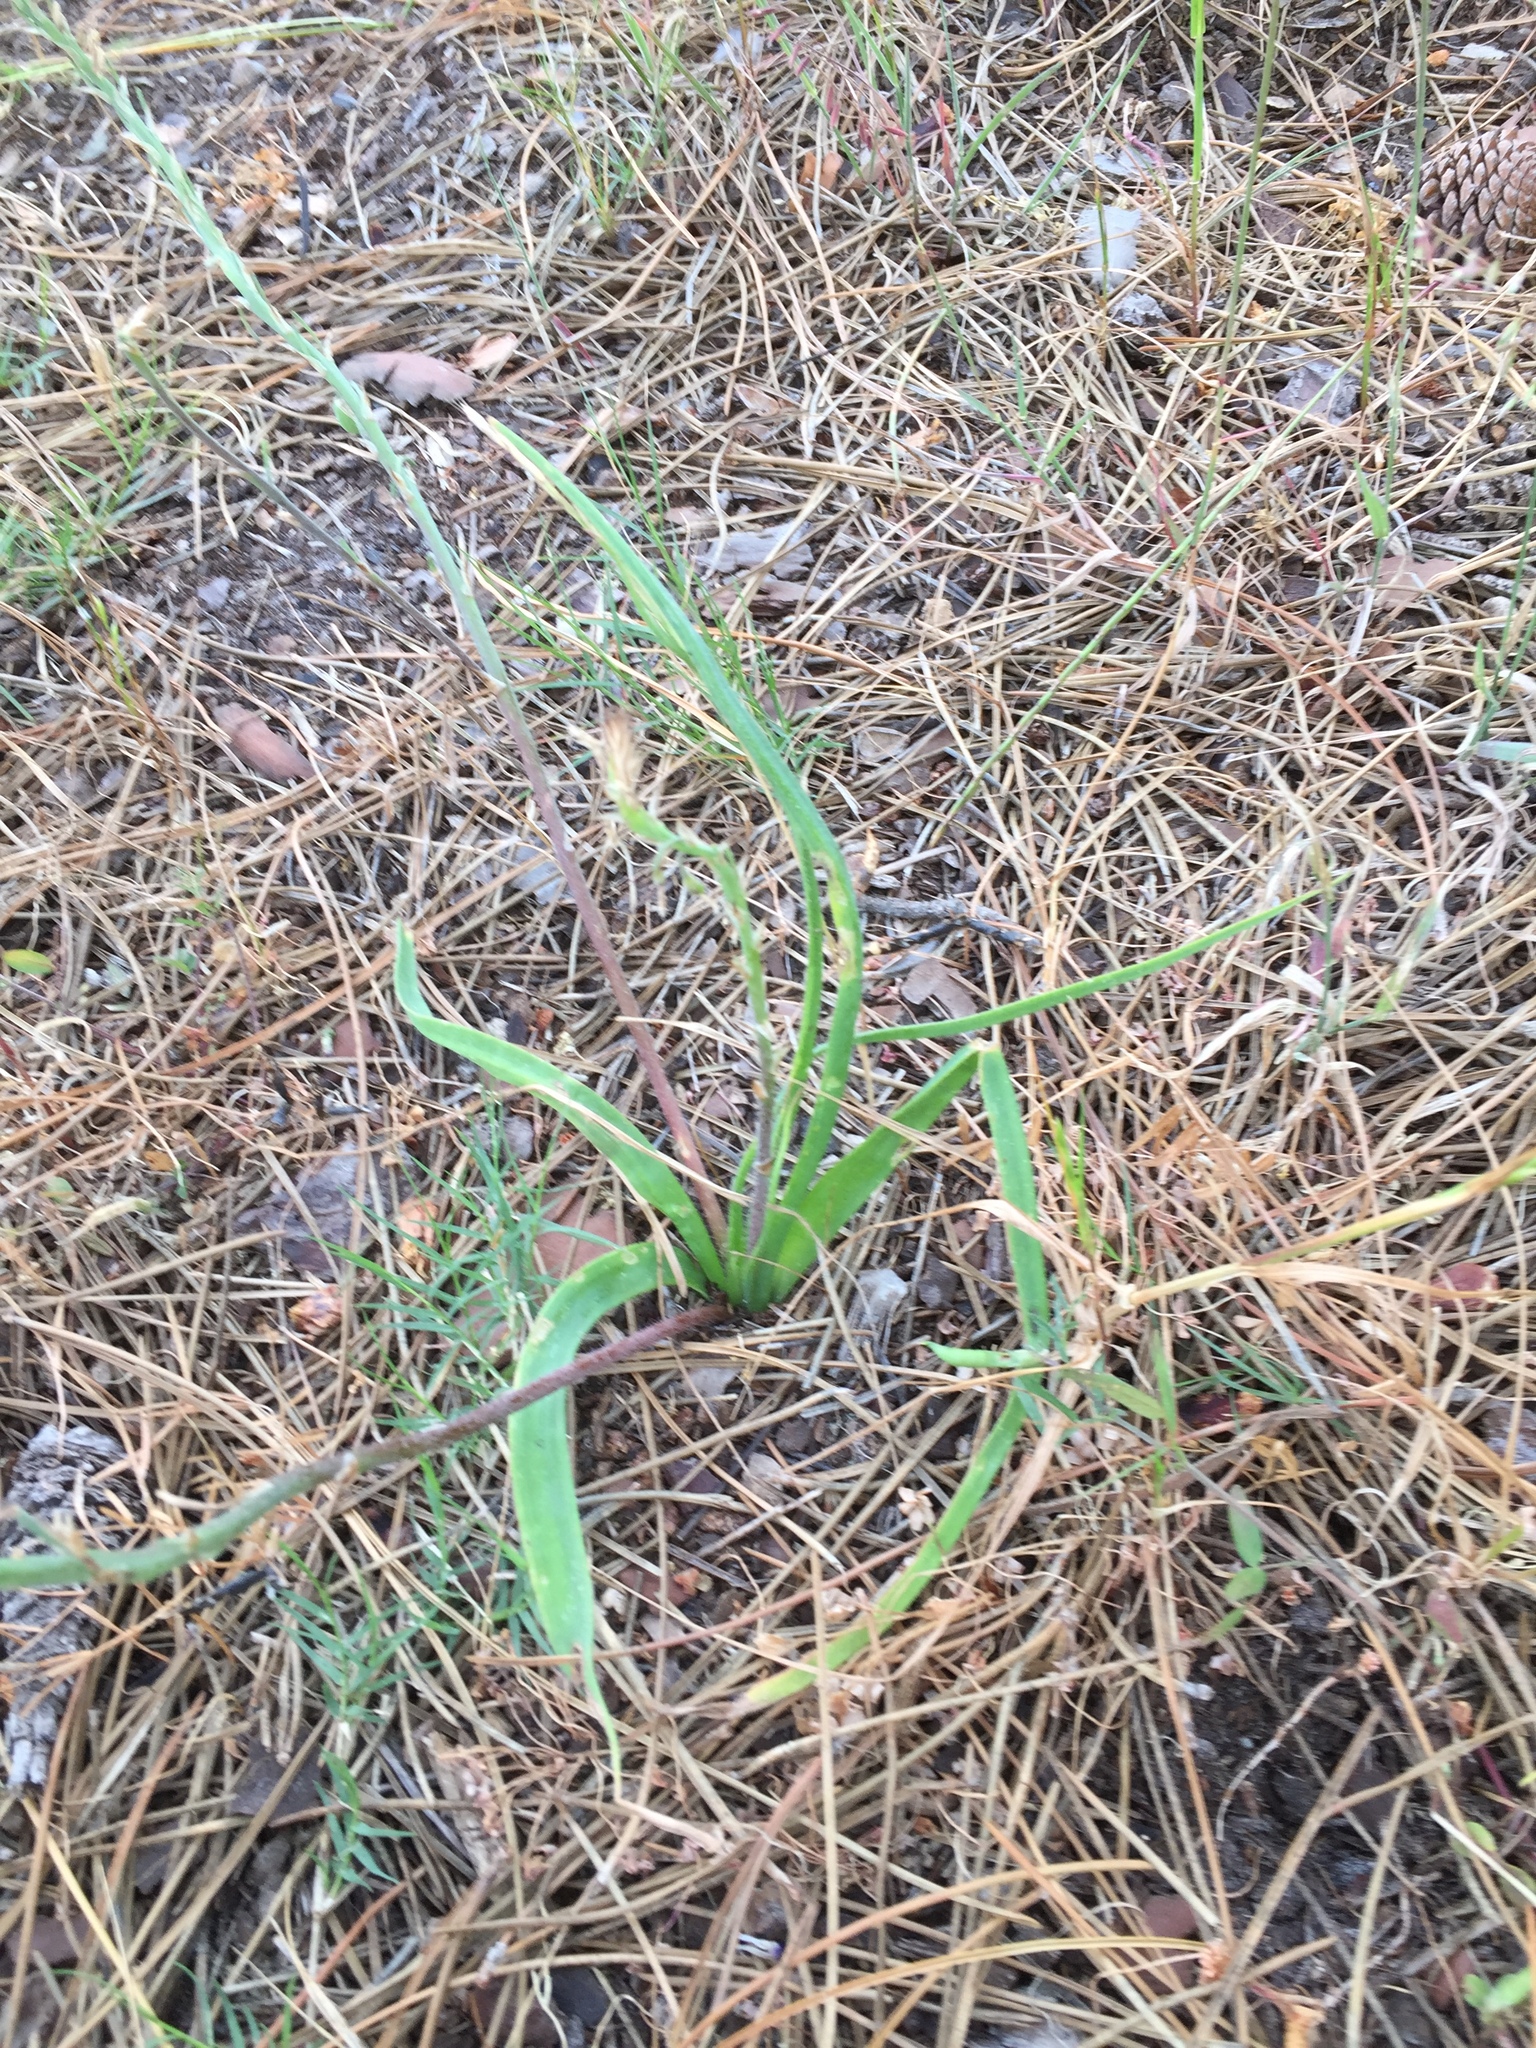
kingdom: Plantae
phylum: Tracheophyta
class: Liliopsida
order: Asparagales
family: Asphodelaceae
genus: Trachyandra
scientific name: Trachyandra ciliata
